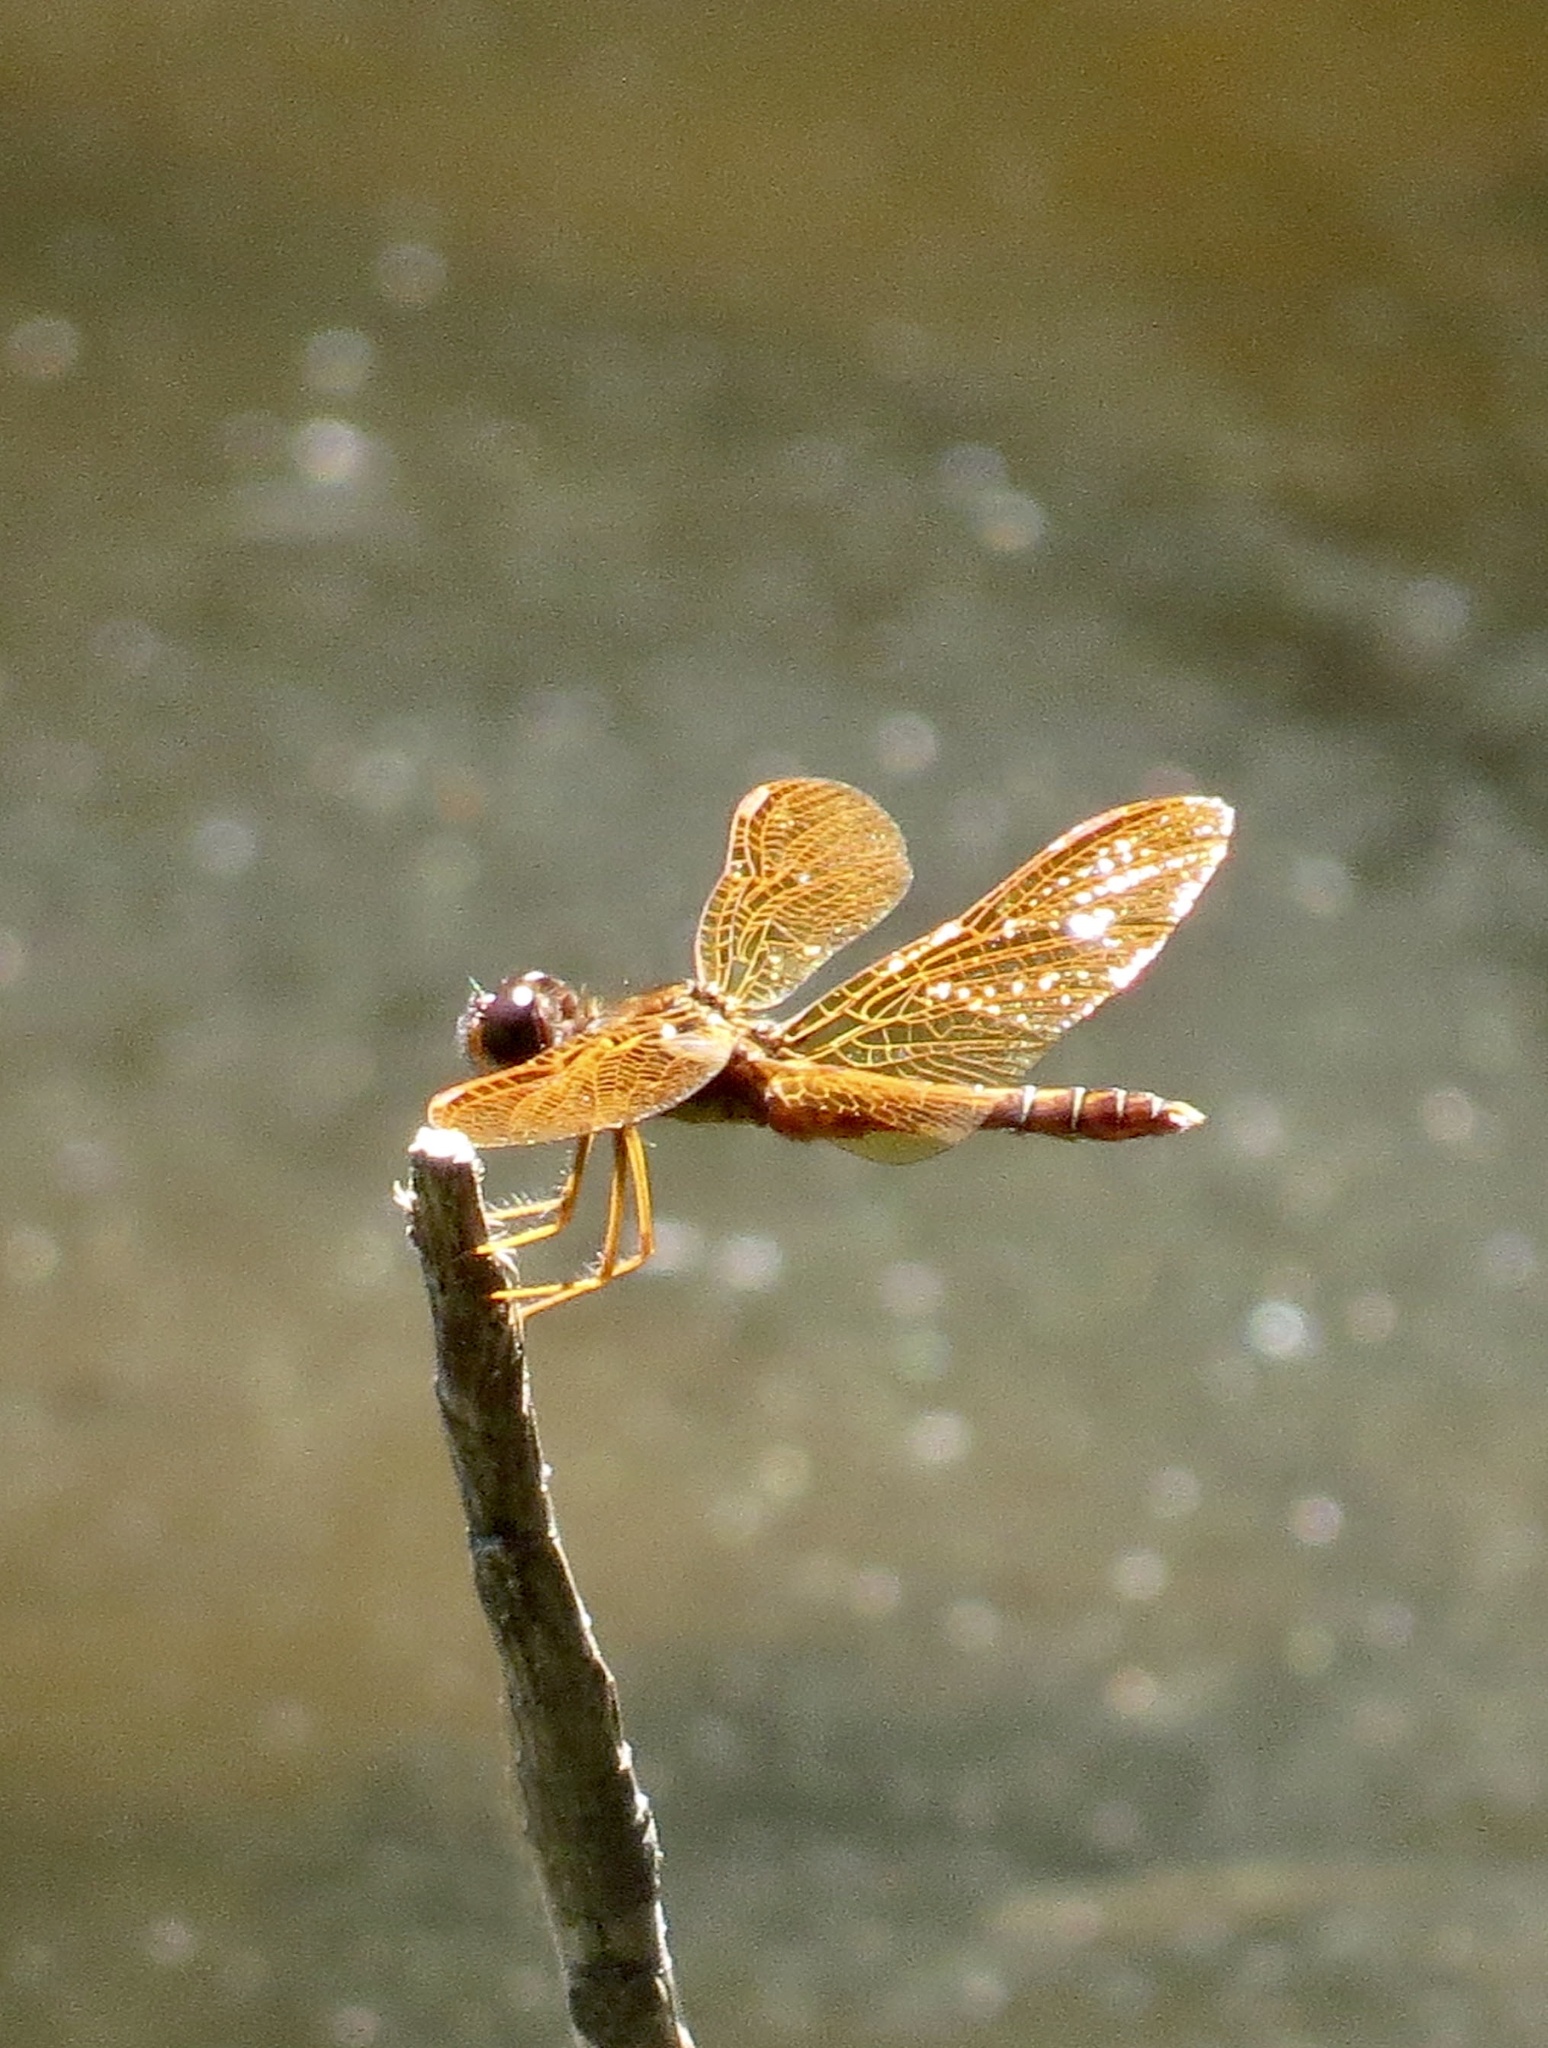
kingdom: Animalia
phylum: Arthropoda
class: Insecta
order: Odonata
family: Libellulidae
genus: Perithemis
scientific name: Perithemis tenera
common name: Eastern amberwing
